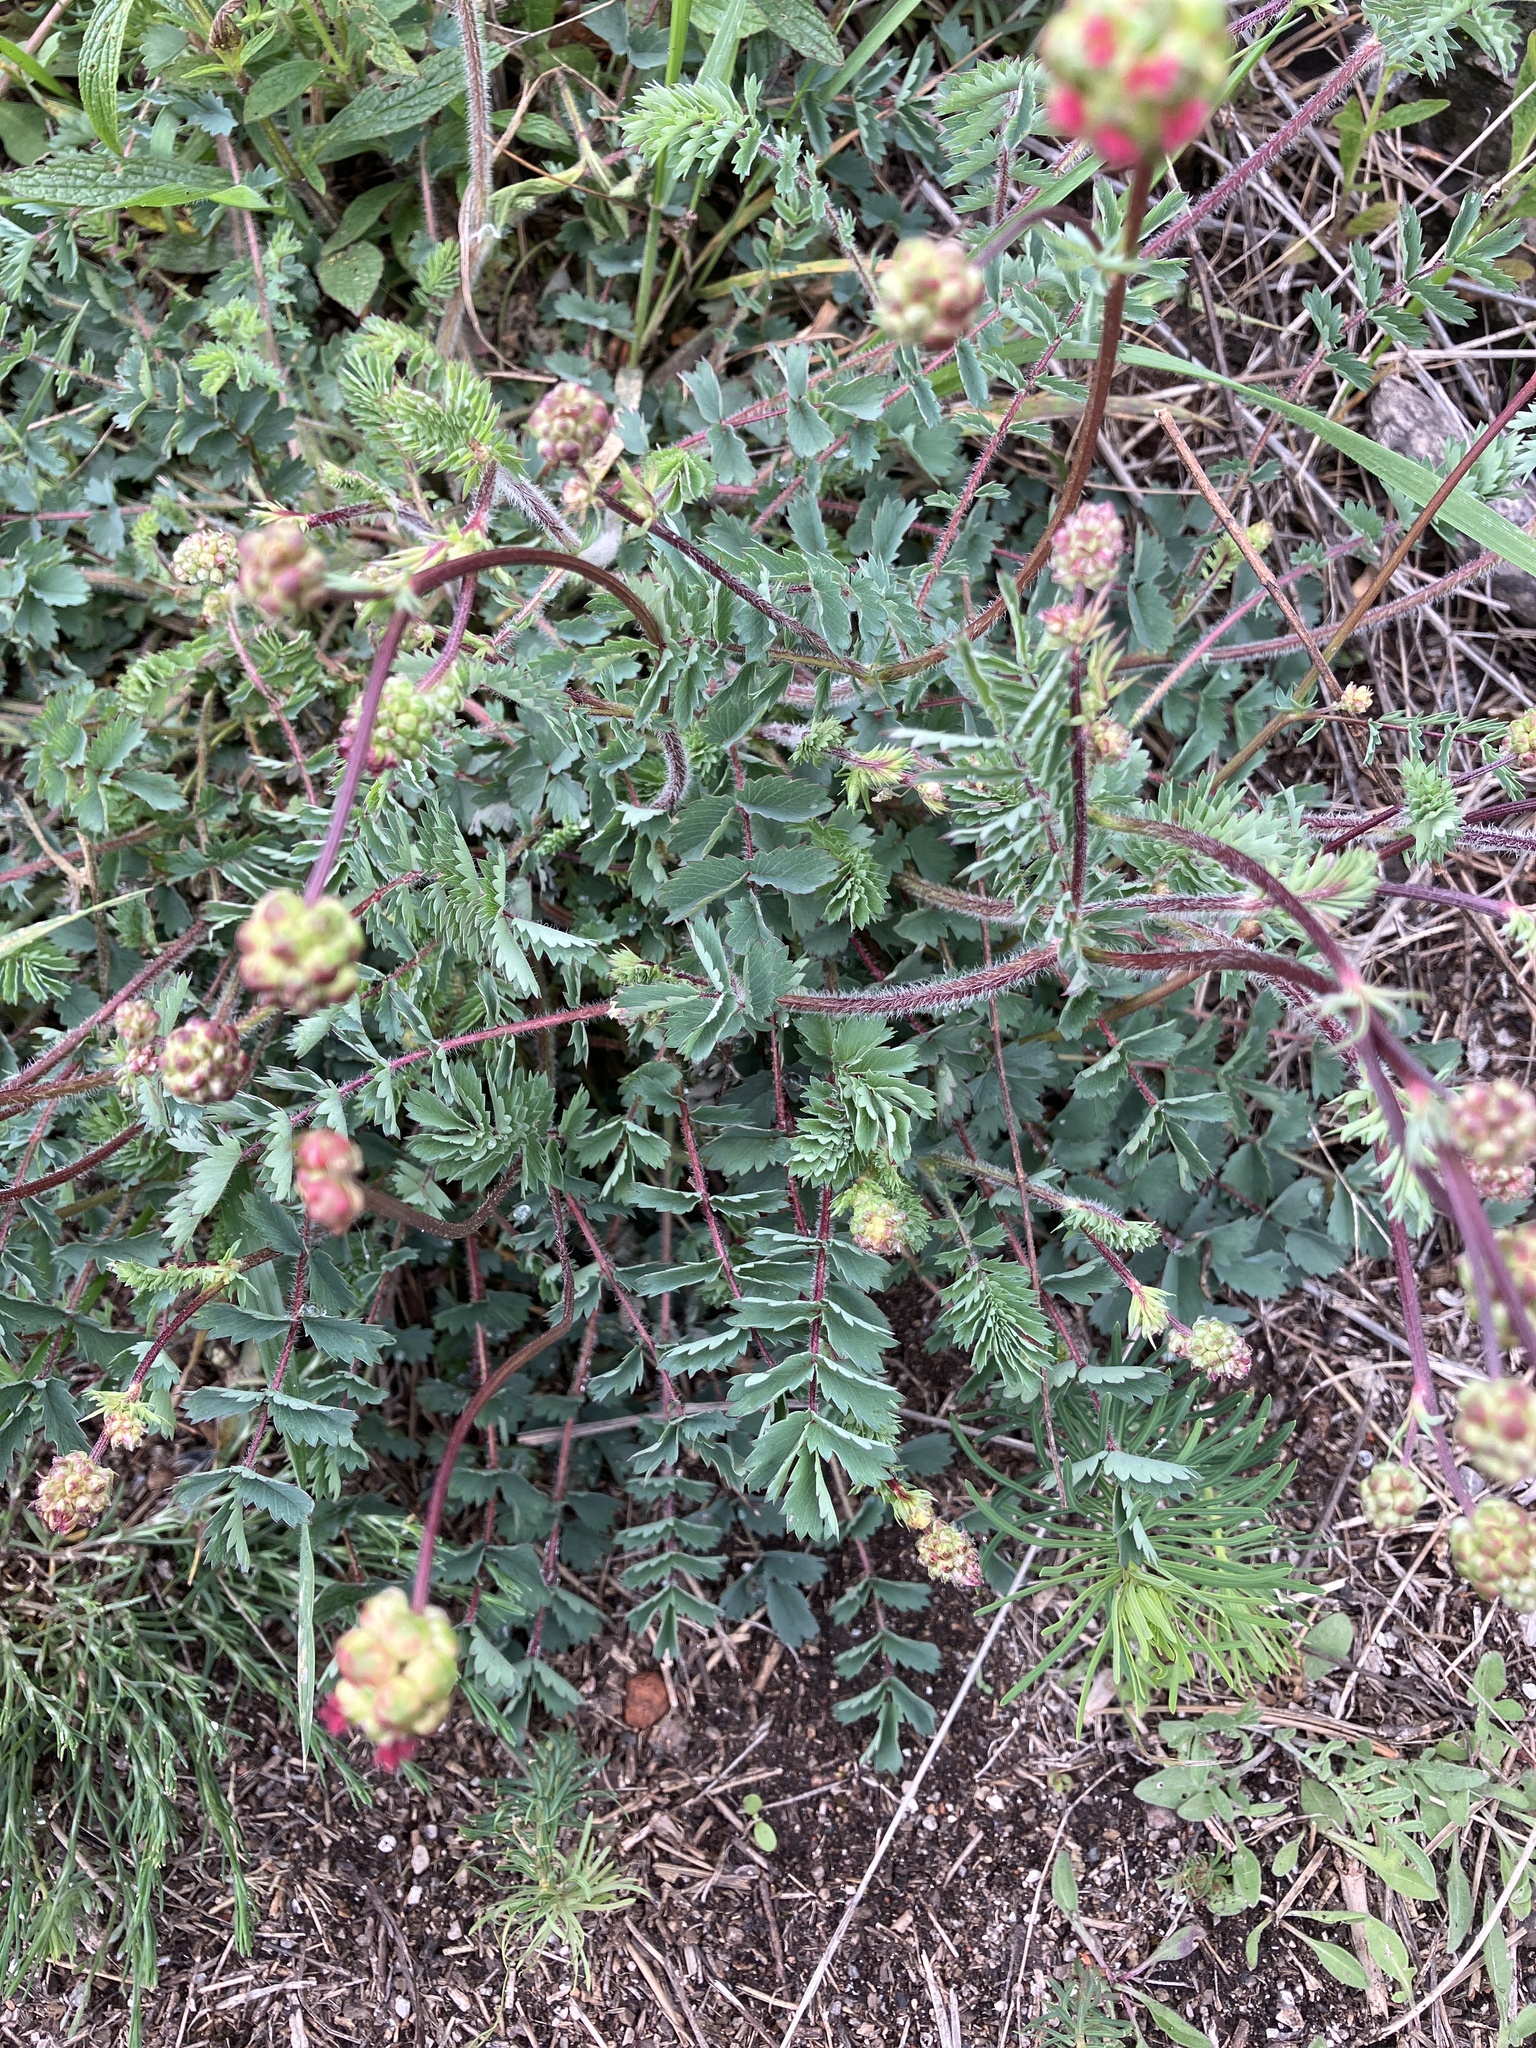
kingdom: Plantae
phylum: Tracheophyta
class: Magnoliopsida
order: Rosales
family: Rosaceae
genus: Poterium
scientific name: Poterium sanguisorba
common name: Salad burnet
